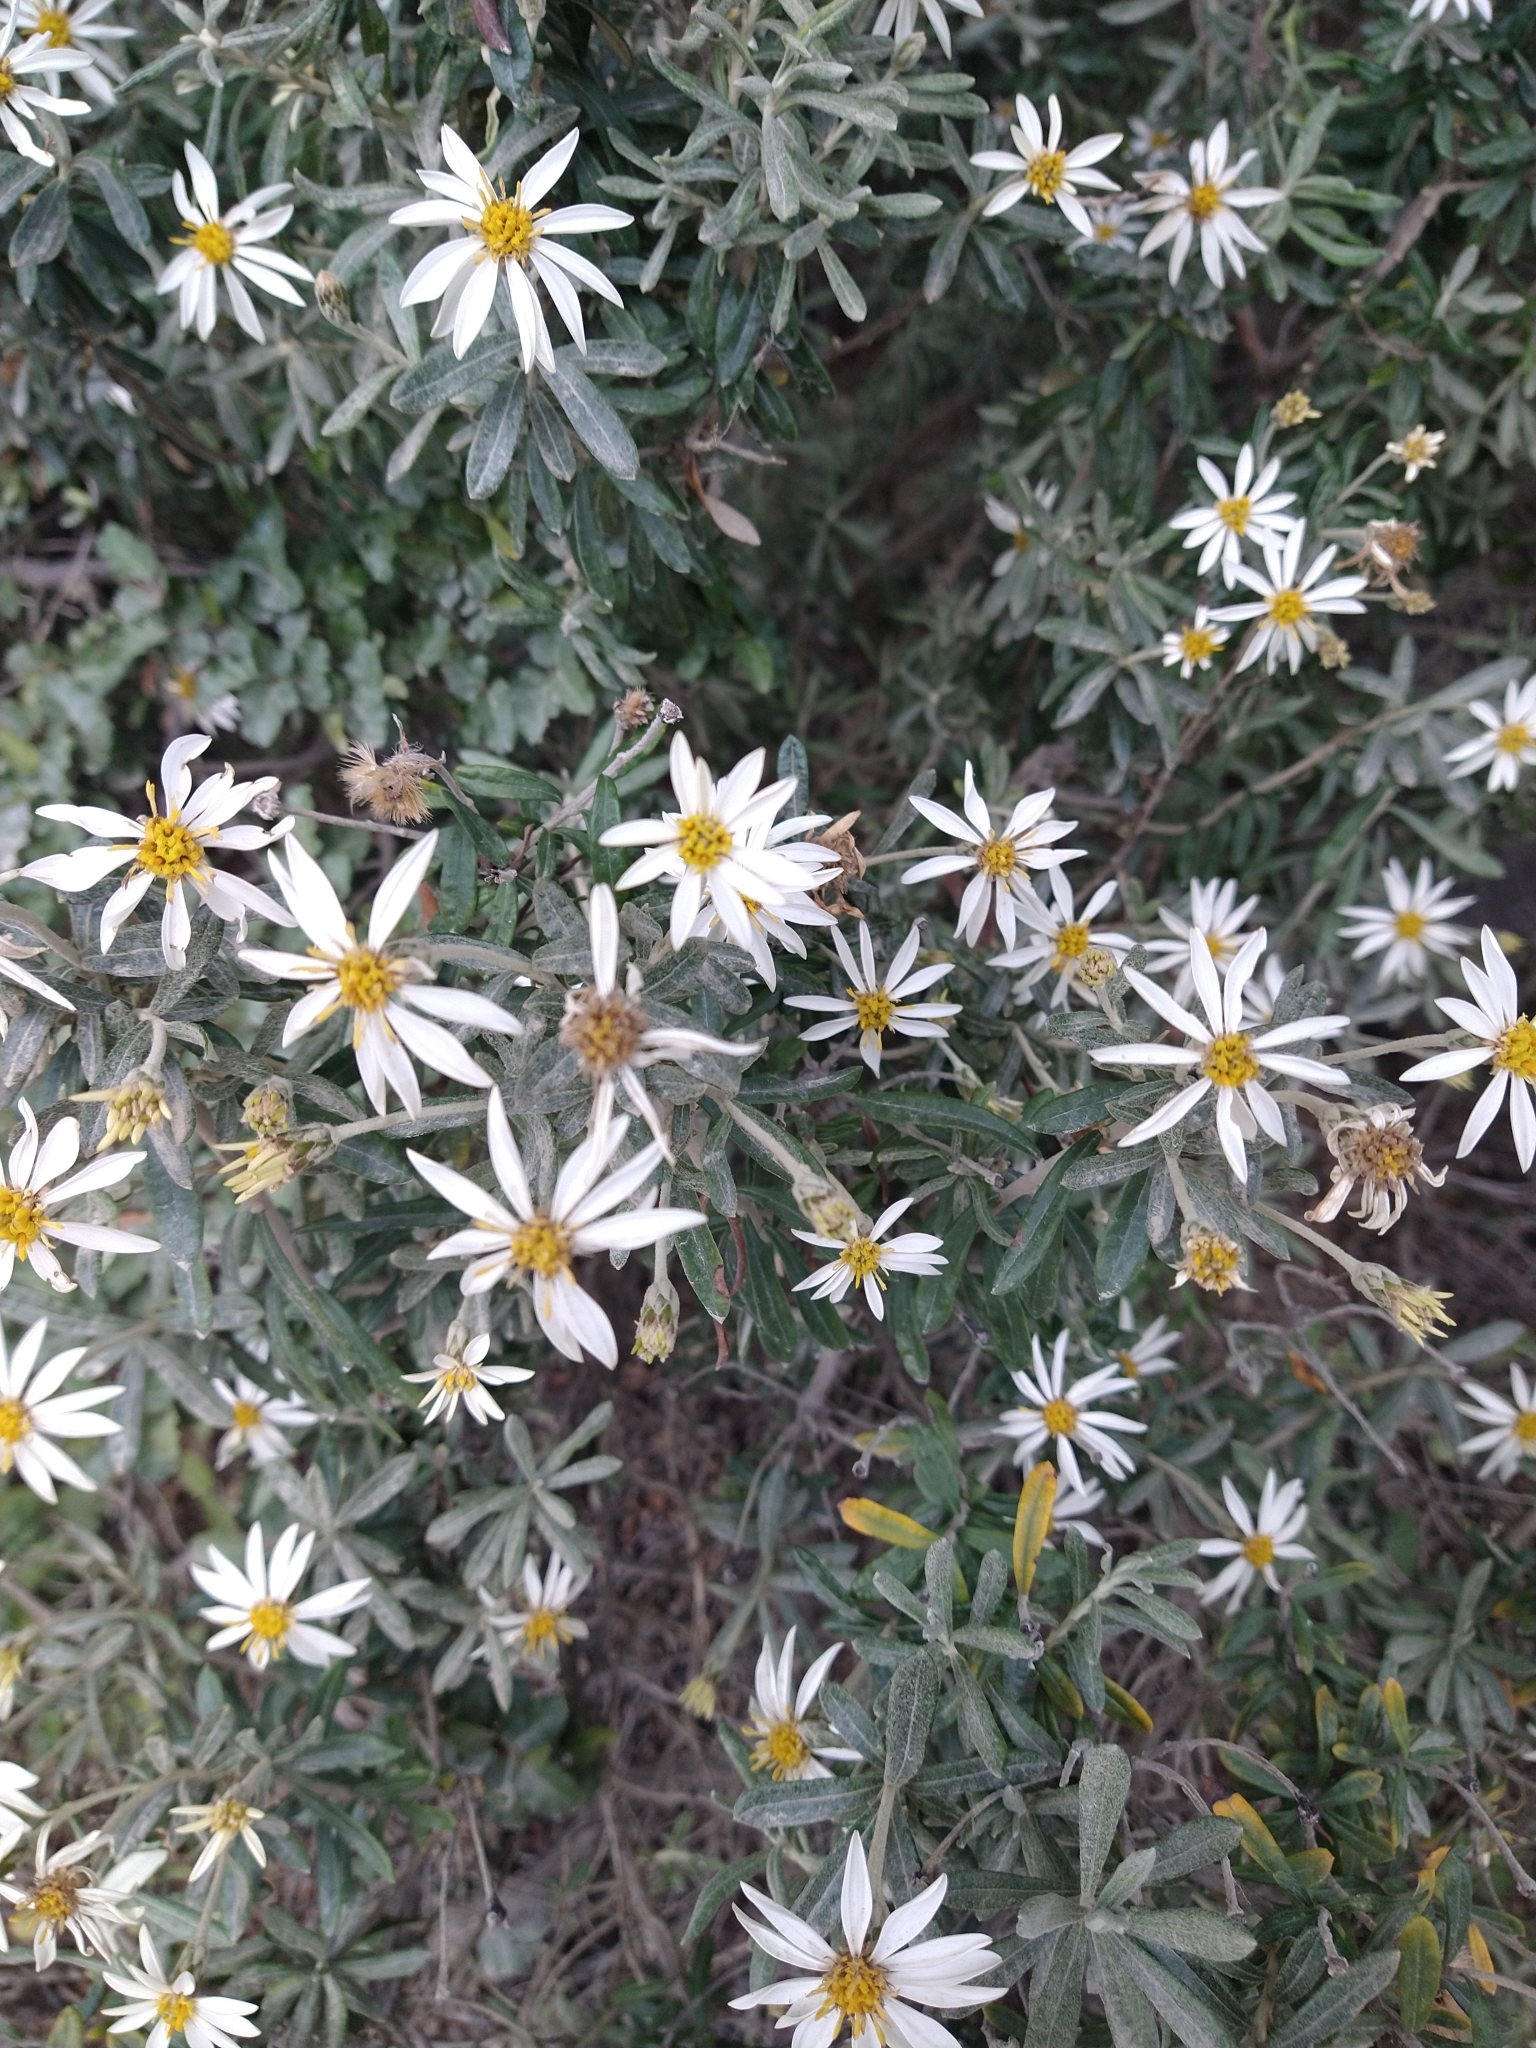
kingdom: Plantae
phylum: Tracheophyta
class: Magnoliopsida
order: Asterales
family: Asteraceae
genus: Chiliotrichum
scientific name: Chiliotrichum diffusum
